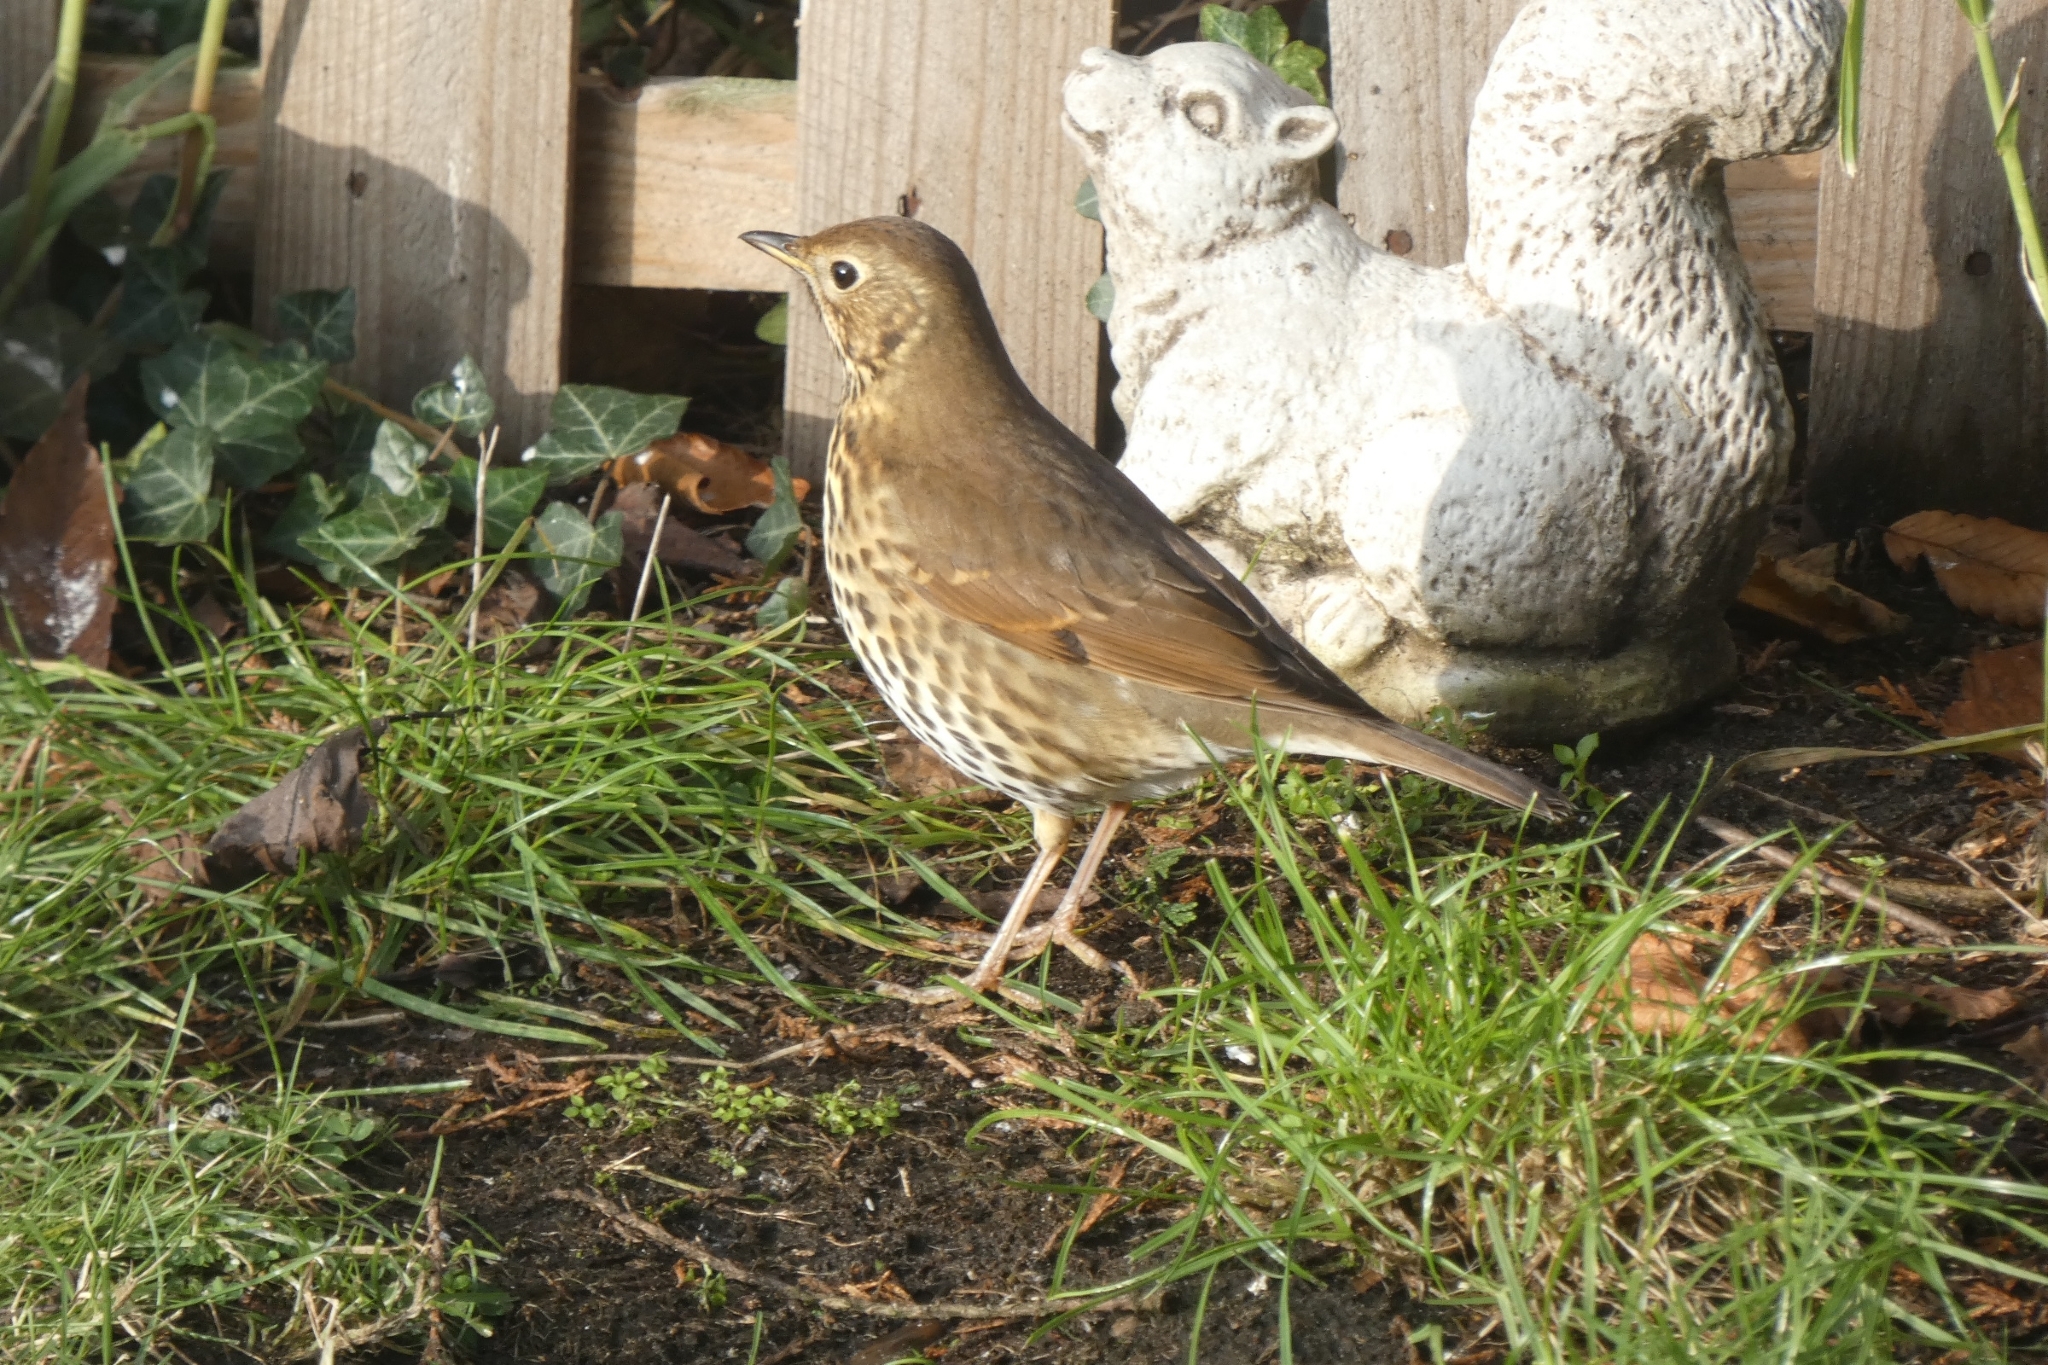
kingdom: Animalia
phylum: Chordata
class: Aves
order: Passeriformes
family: Turdidae
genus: Turdus
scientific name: Turdus philomelos
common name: Song thrush
